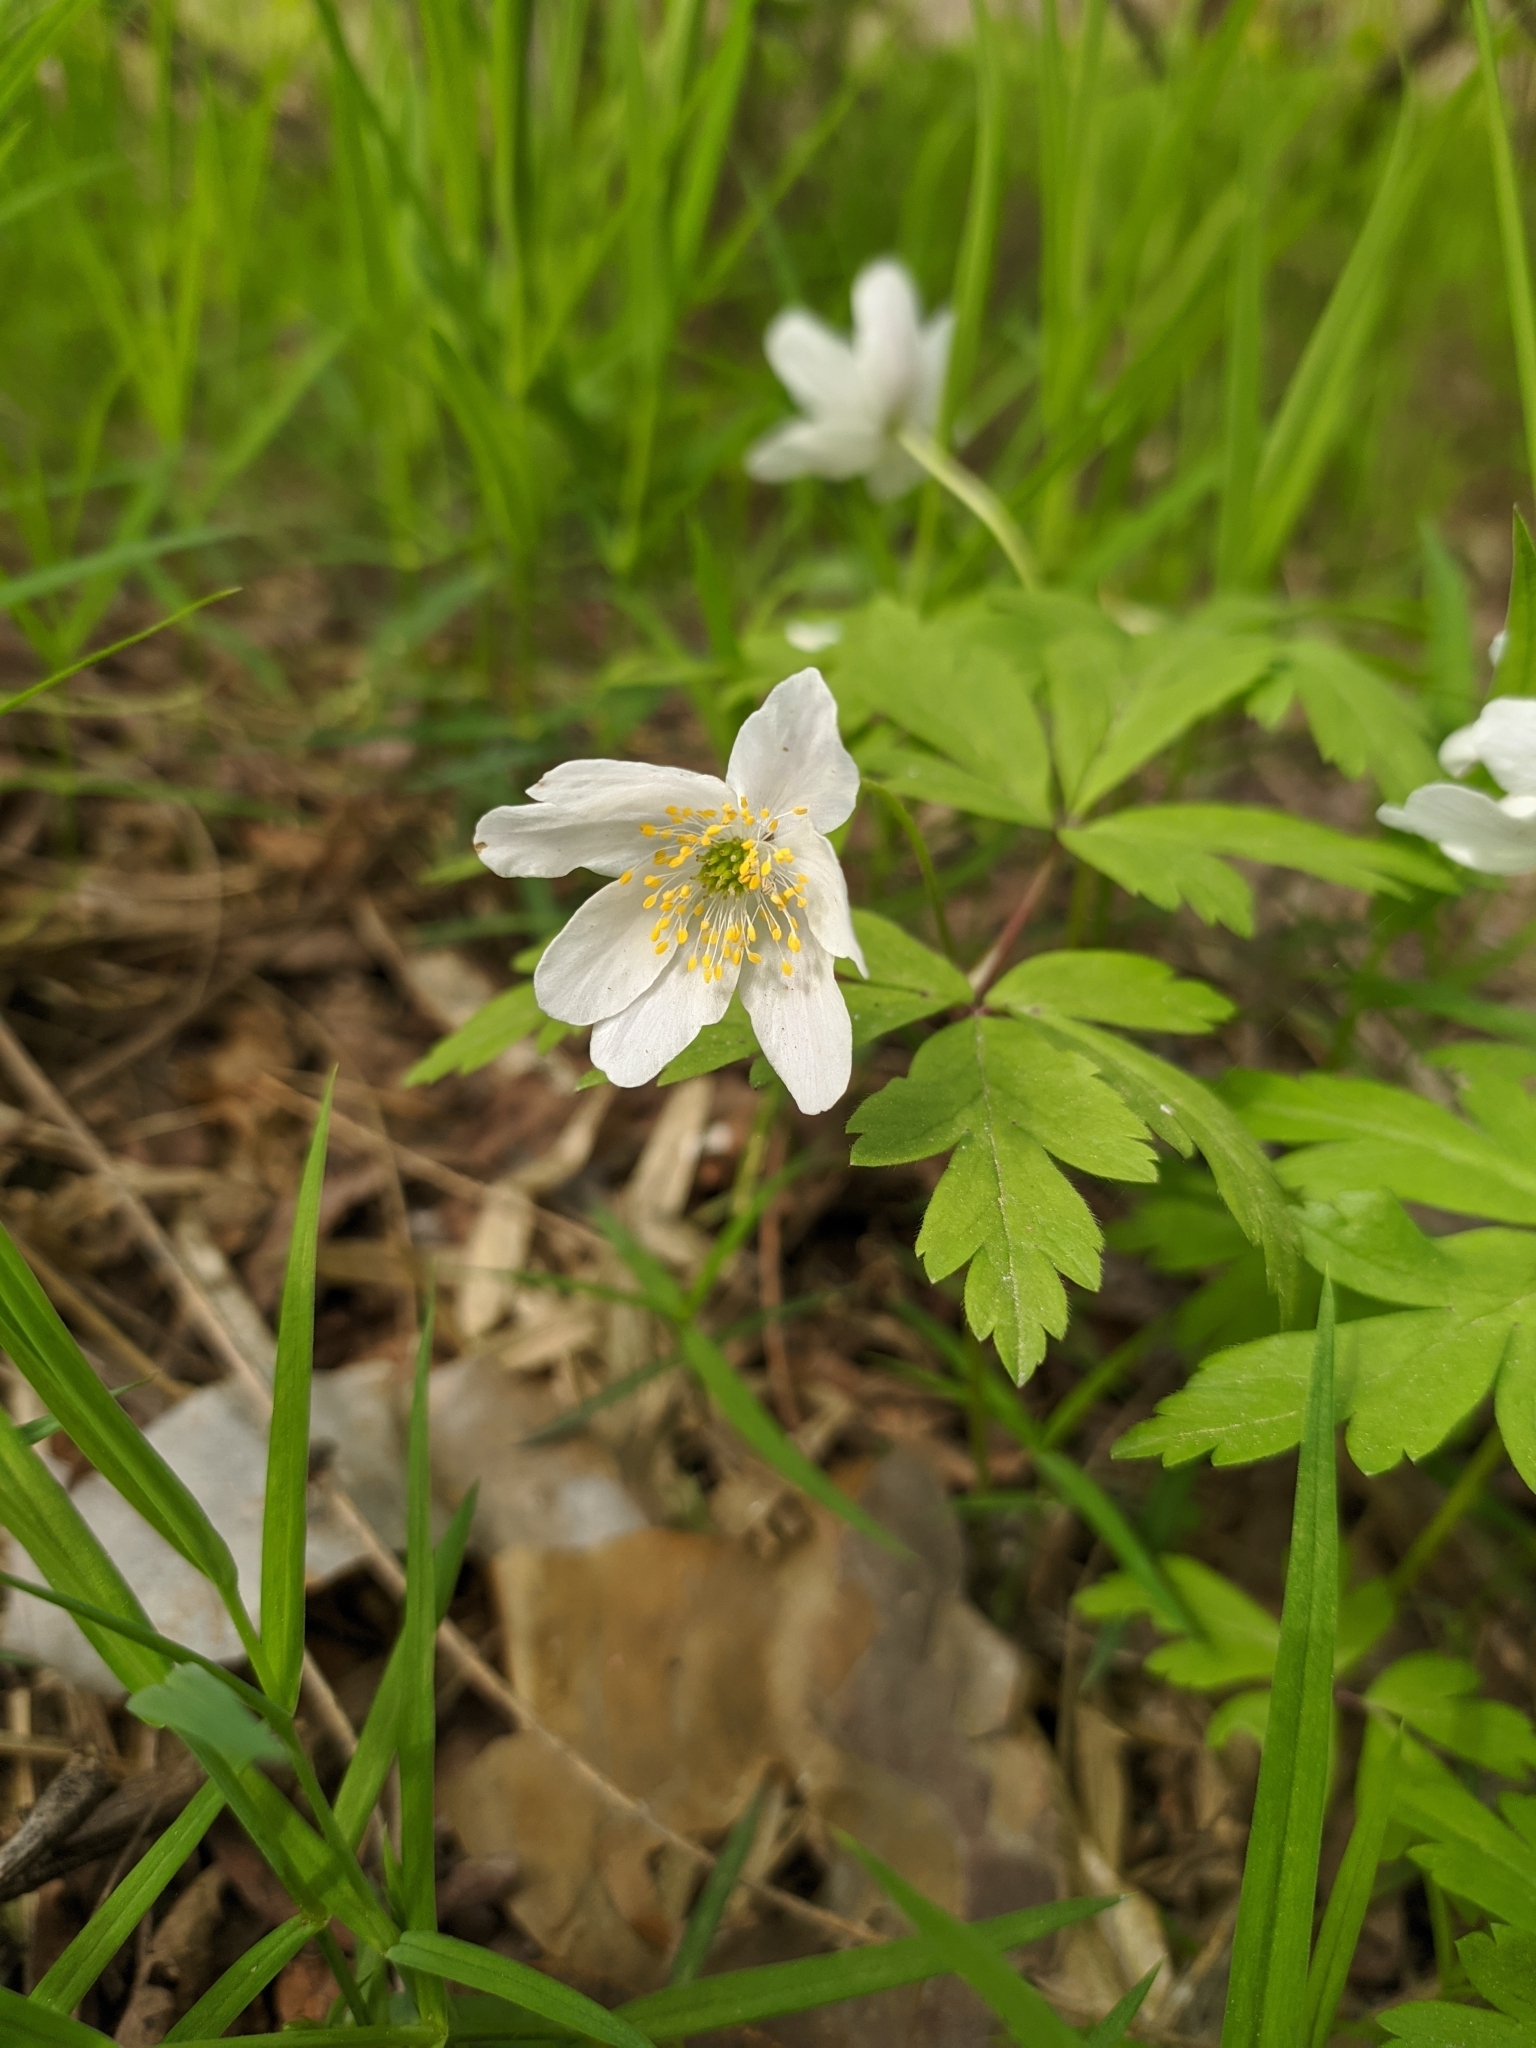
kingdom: Plantae
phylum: Tracheophyta
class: Magnoliopsida
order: Ranunculales
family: Ranunculaceae
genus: Anemone
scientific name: Anemone nemorosa
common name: Wood anemone
